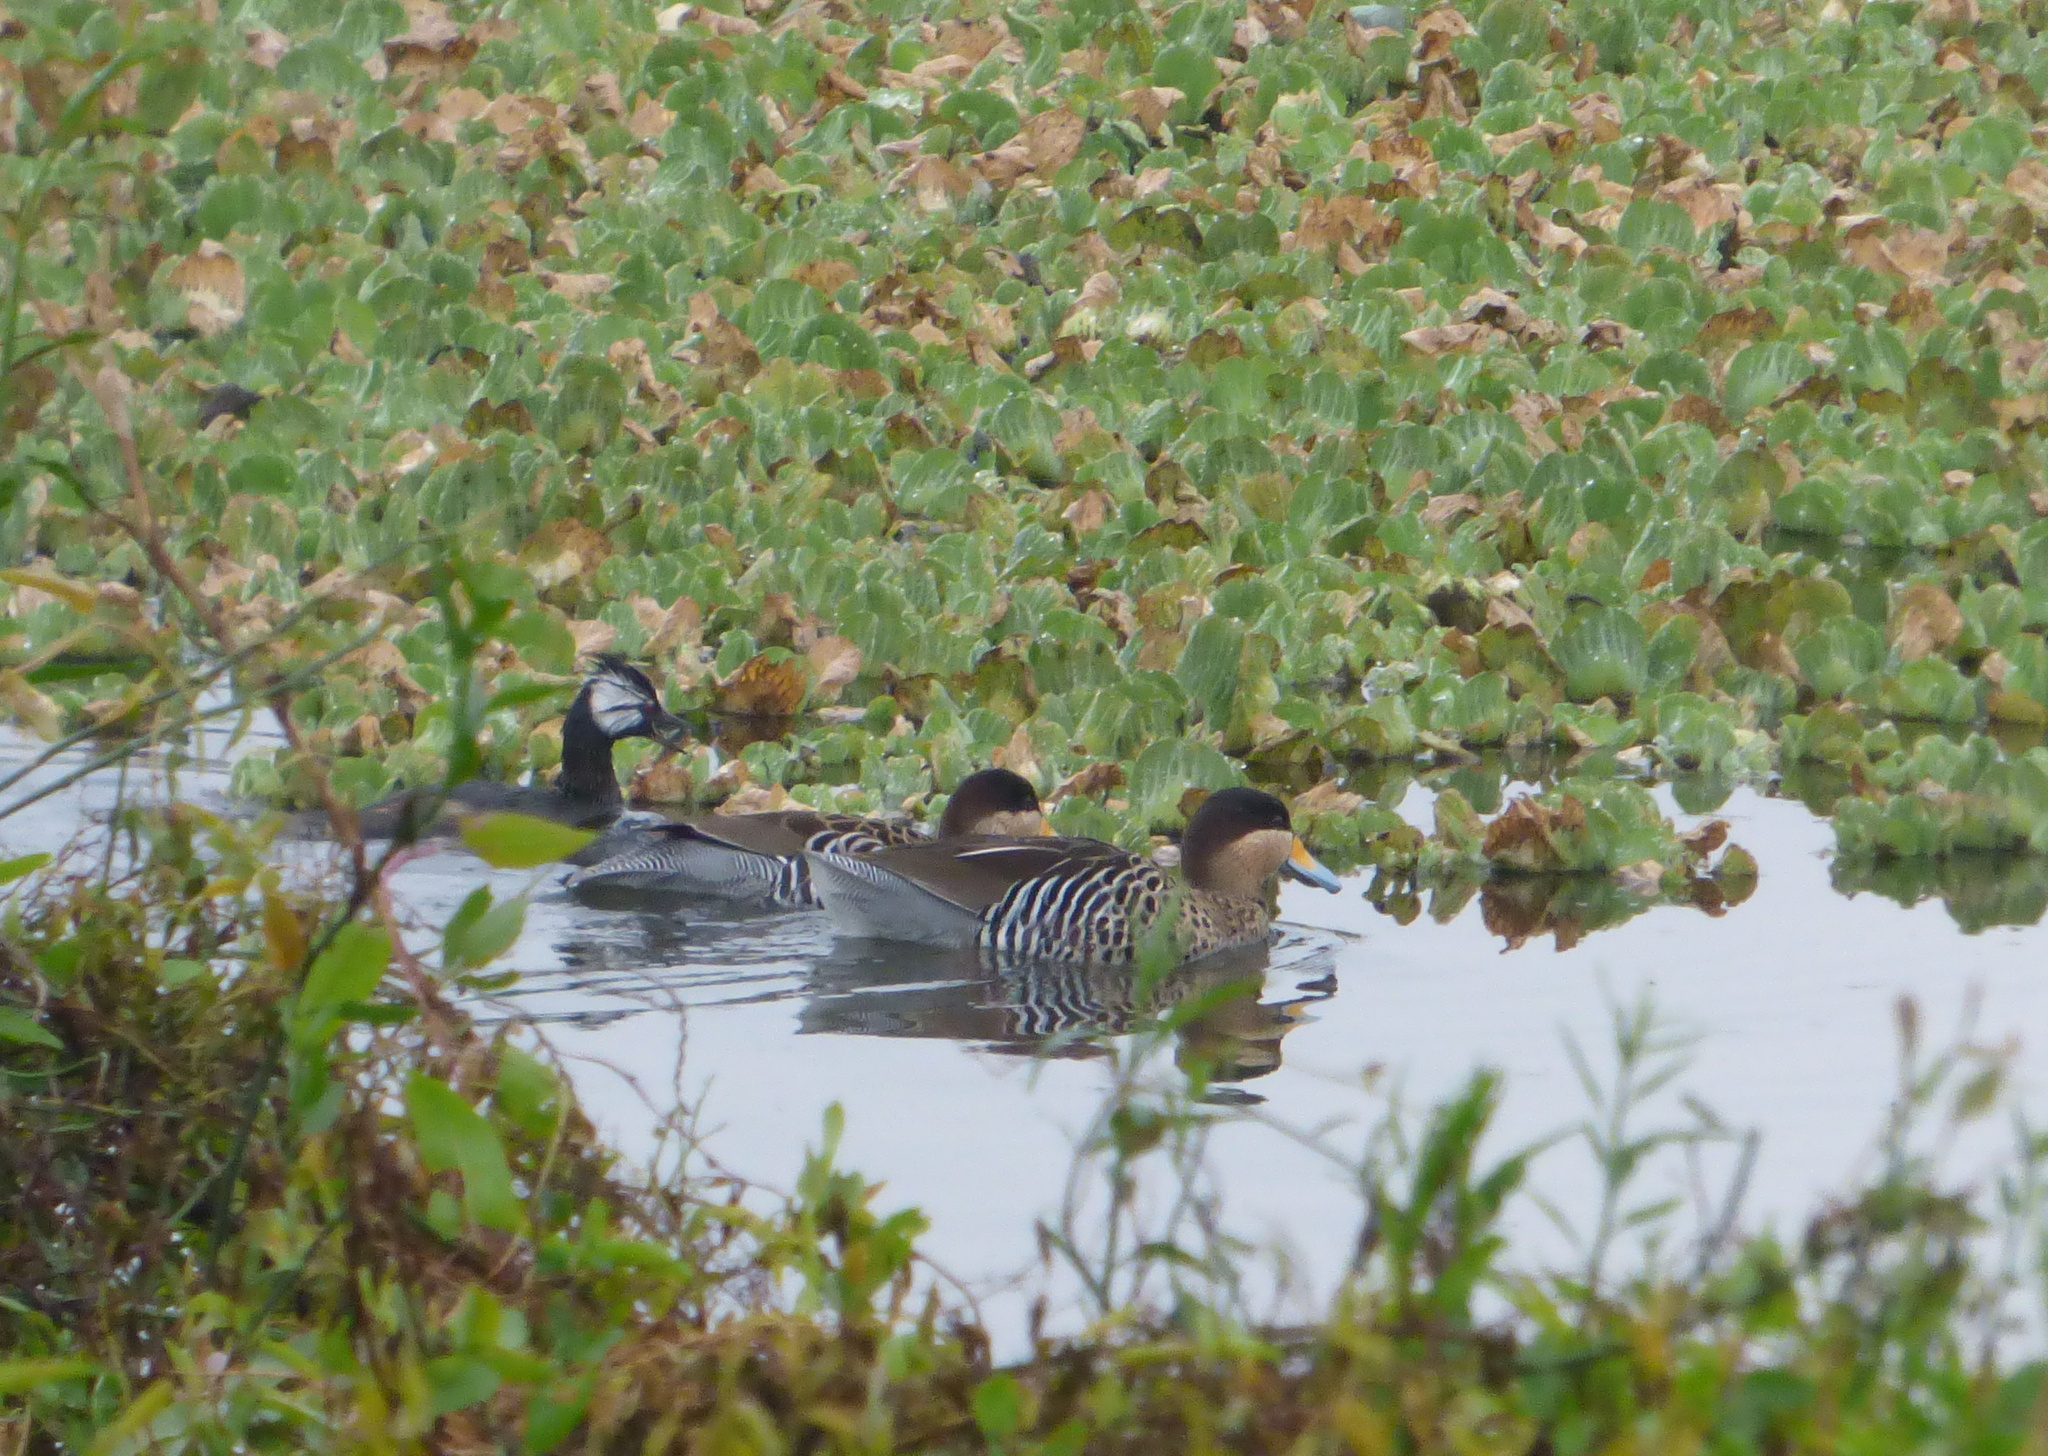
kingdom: Animalia
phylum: Chordata
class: Aves
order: Anseriformes
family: Anatidae
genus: Spatula
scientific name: Spatula versicolor
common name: Silver teal
